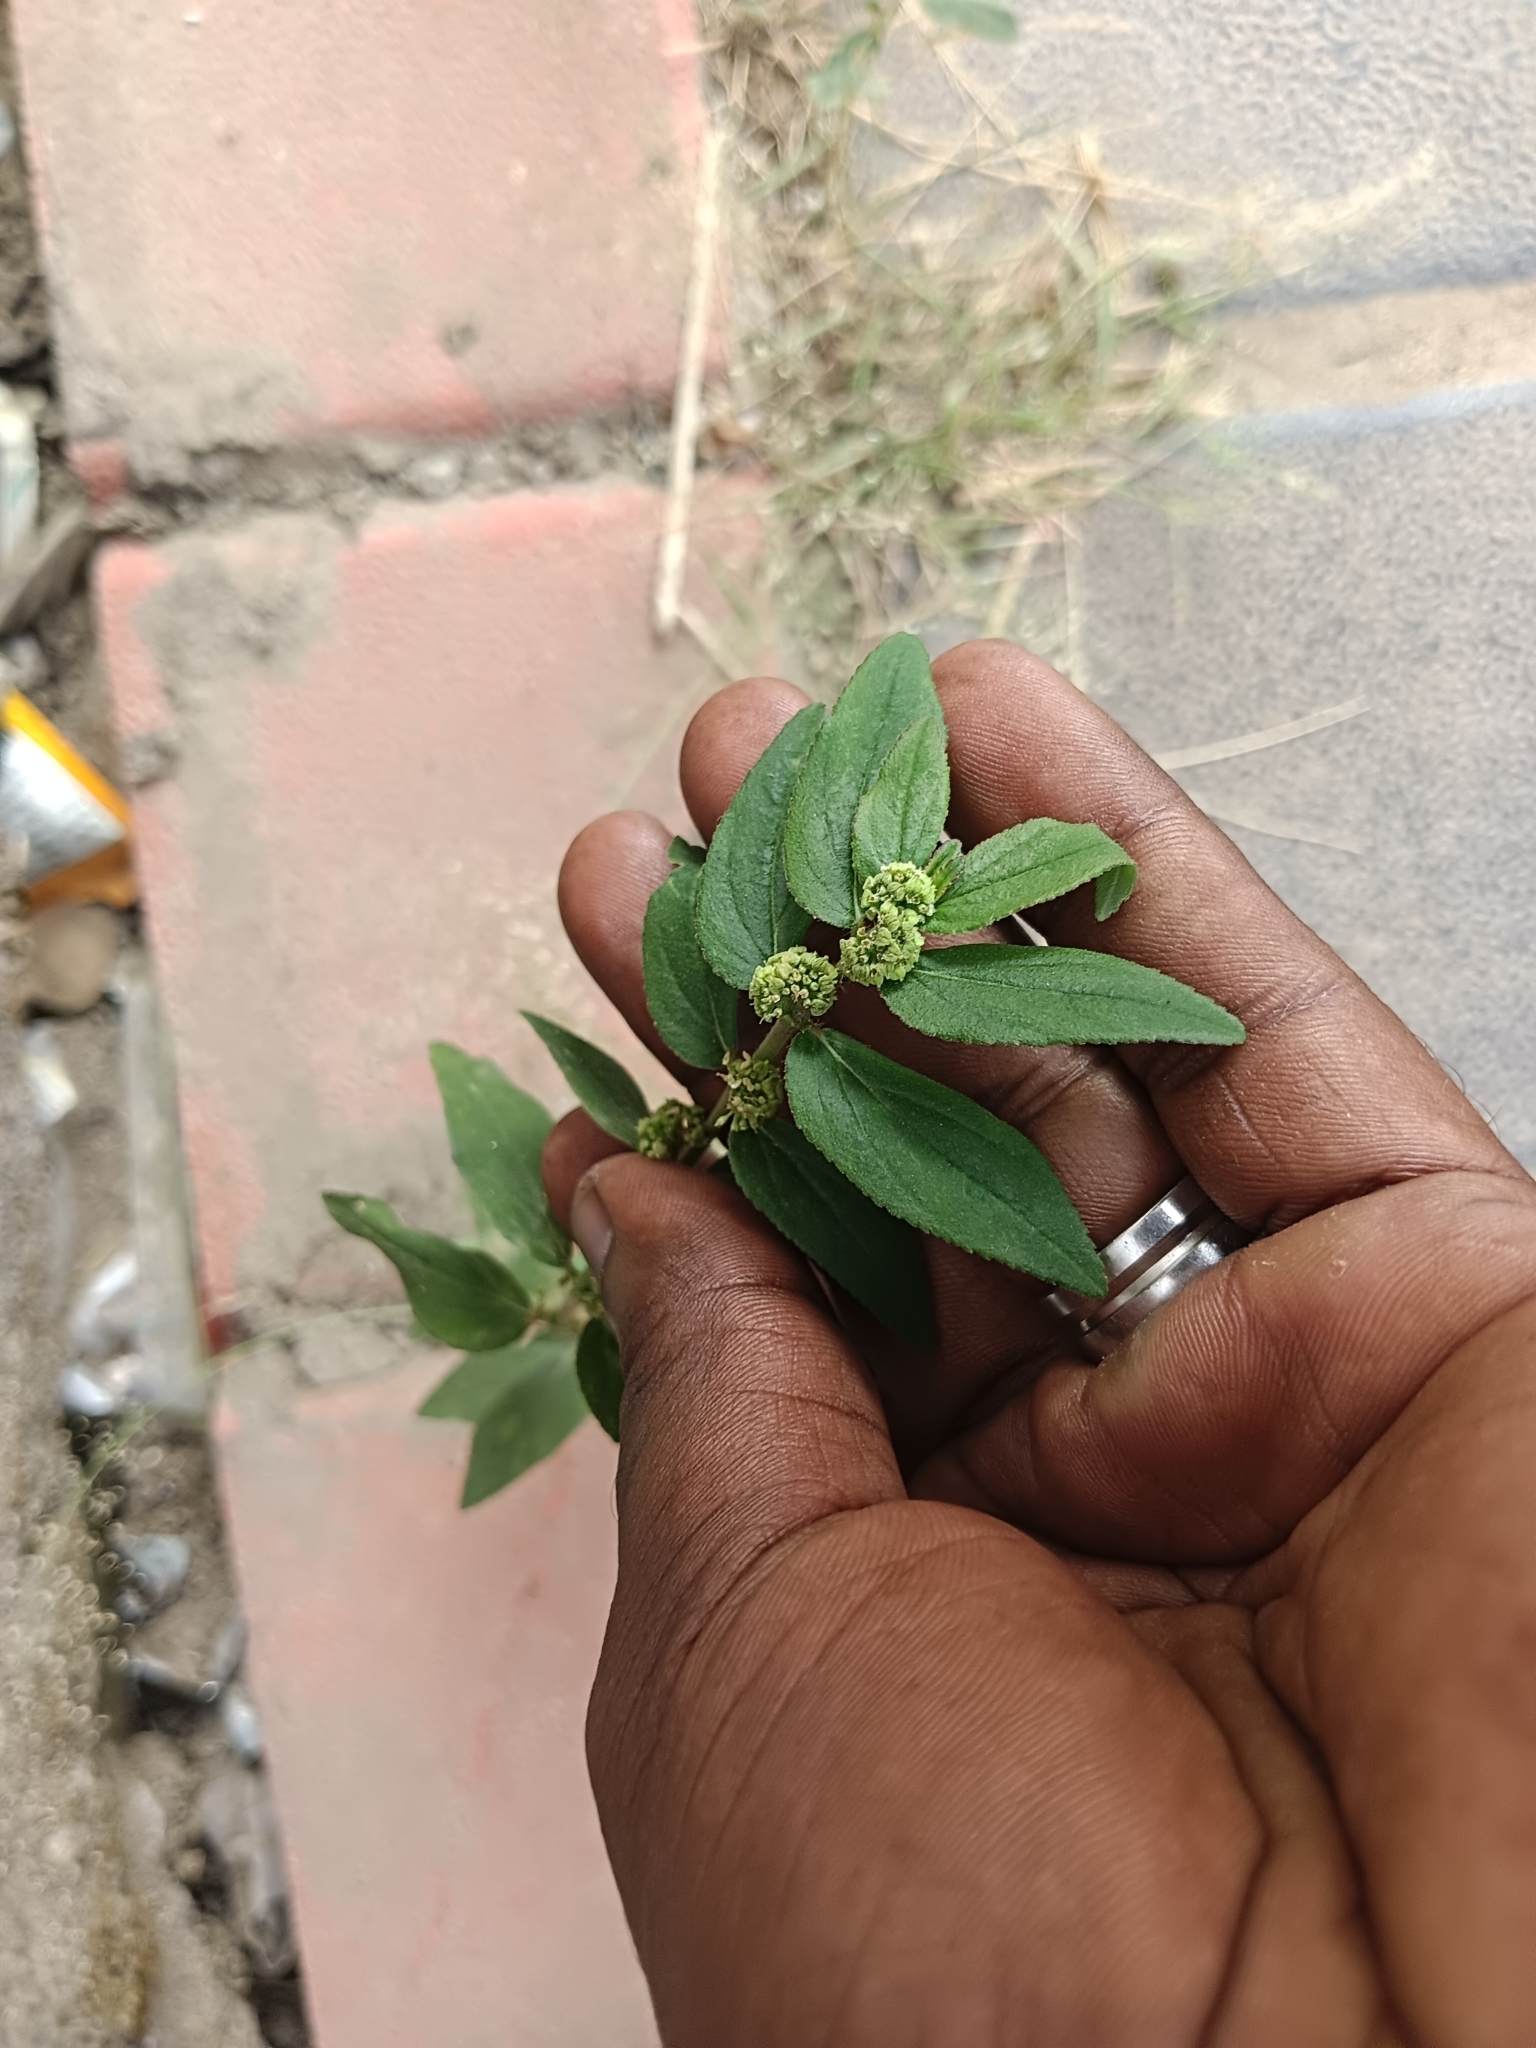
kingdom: Plantae
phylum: Tracheophyta
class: Magnoliopsida
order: Malpighiales
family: Euphorbiaceae
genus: Euphorbia
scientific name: Euphorbia hirta
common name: Pillpod sandmat
